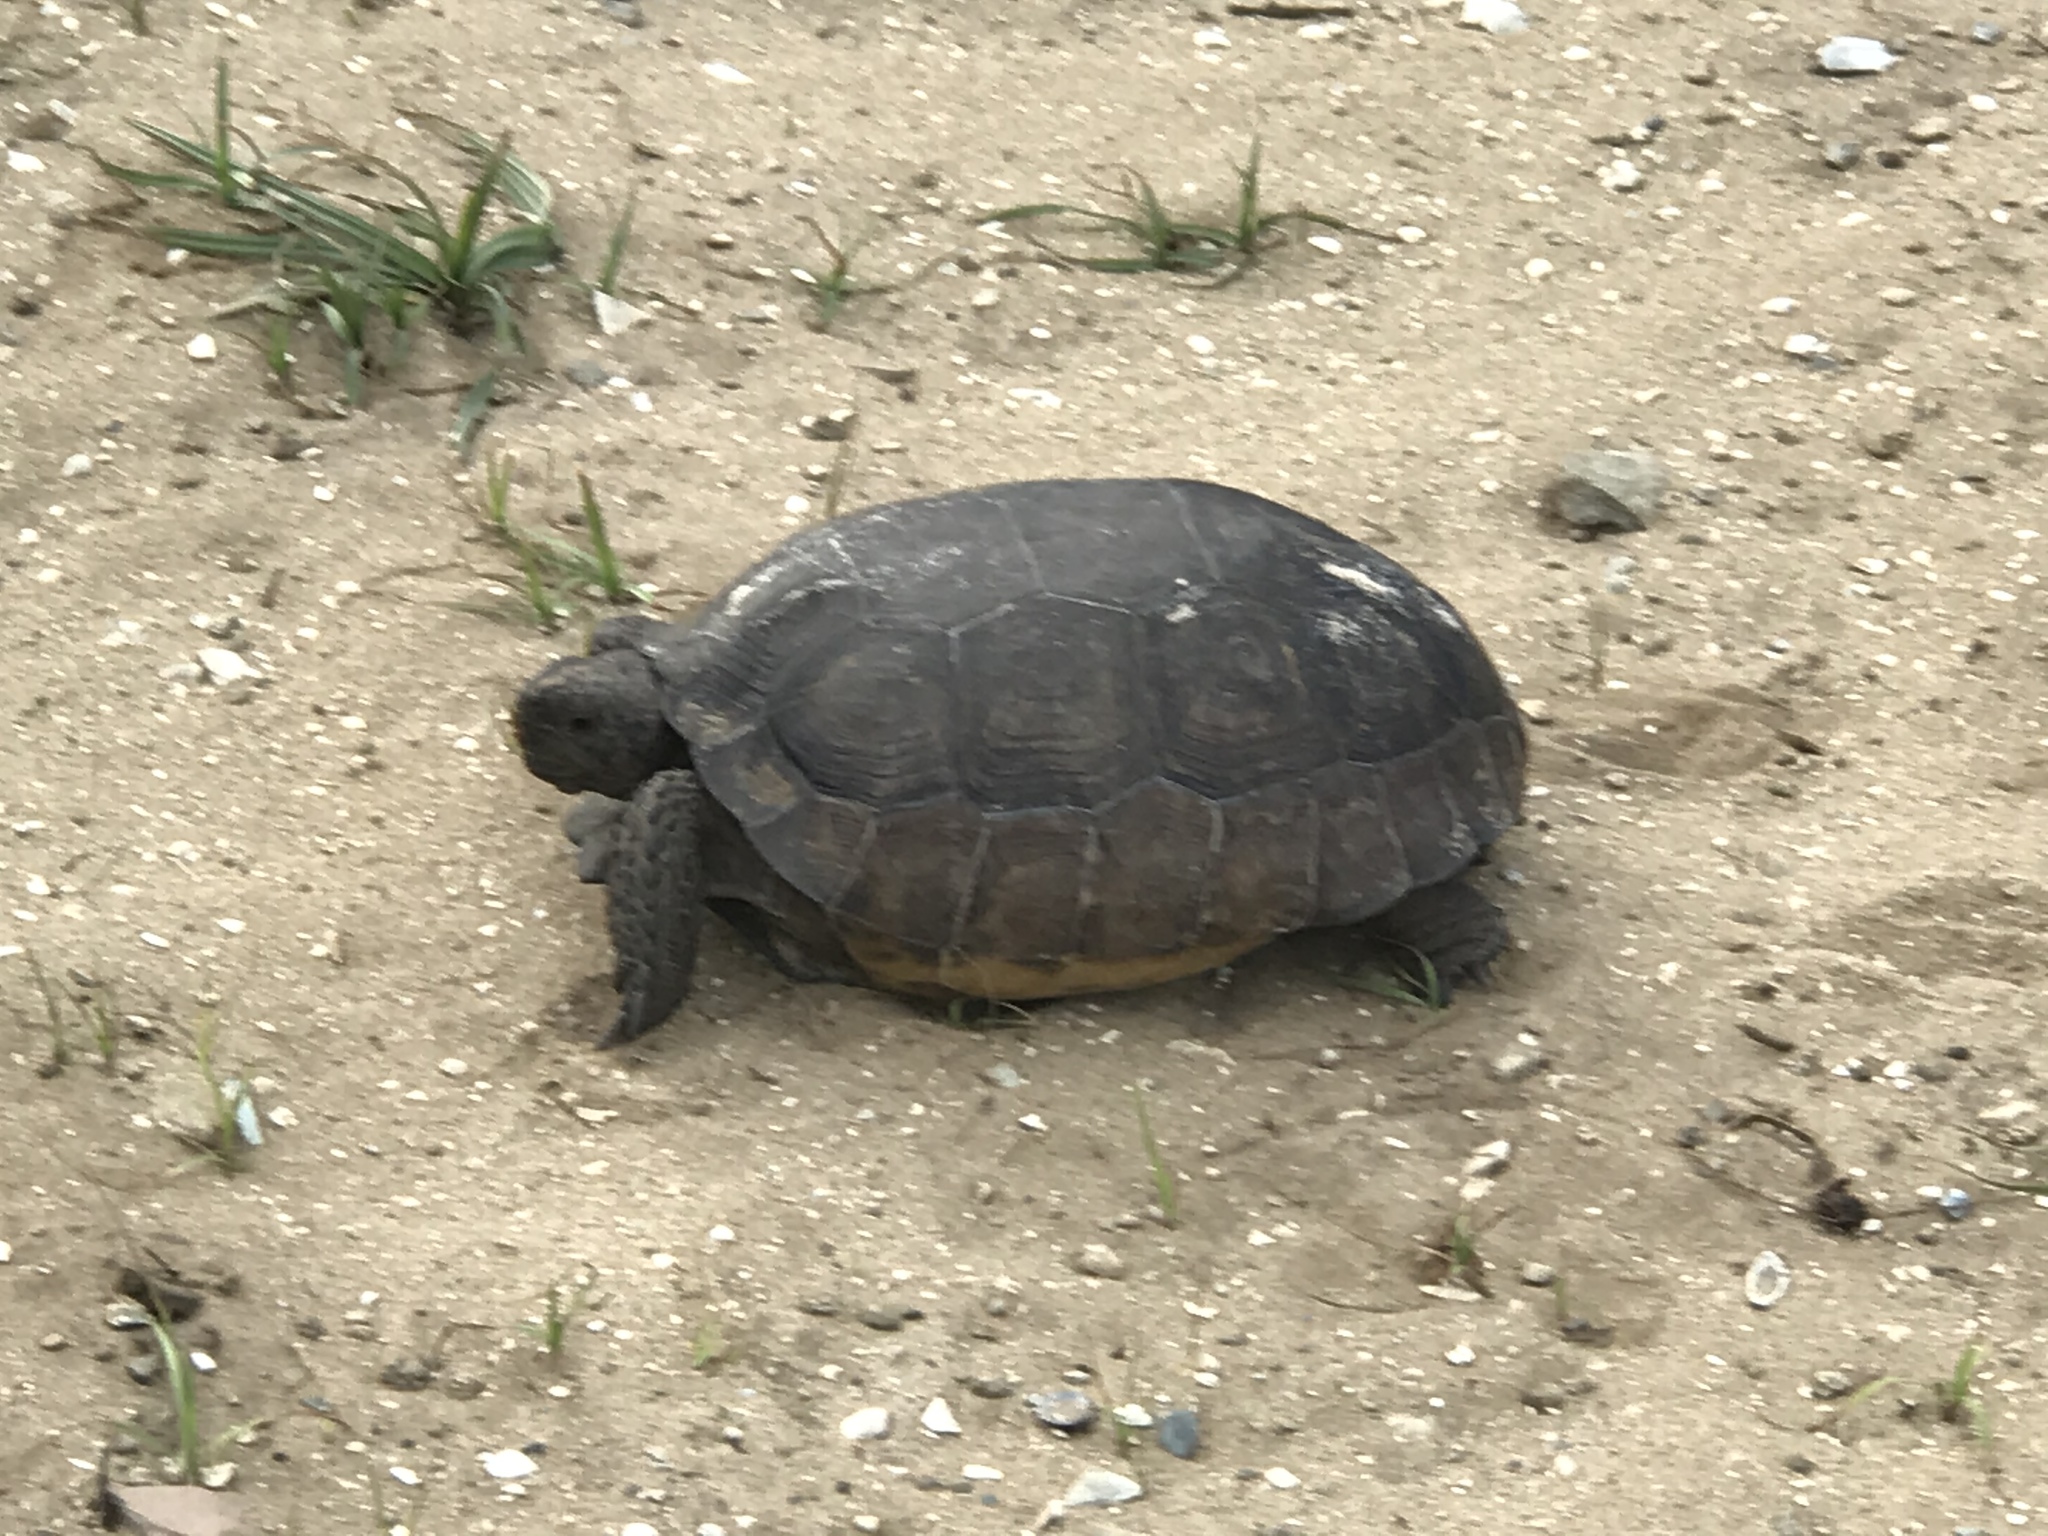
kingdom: Animalia
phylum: Chordata
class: Testudines
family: Testudinidae
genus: Gopherus
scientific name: Gopherus polyphemus
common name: Florida gopher tortoise
